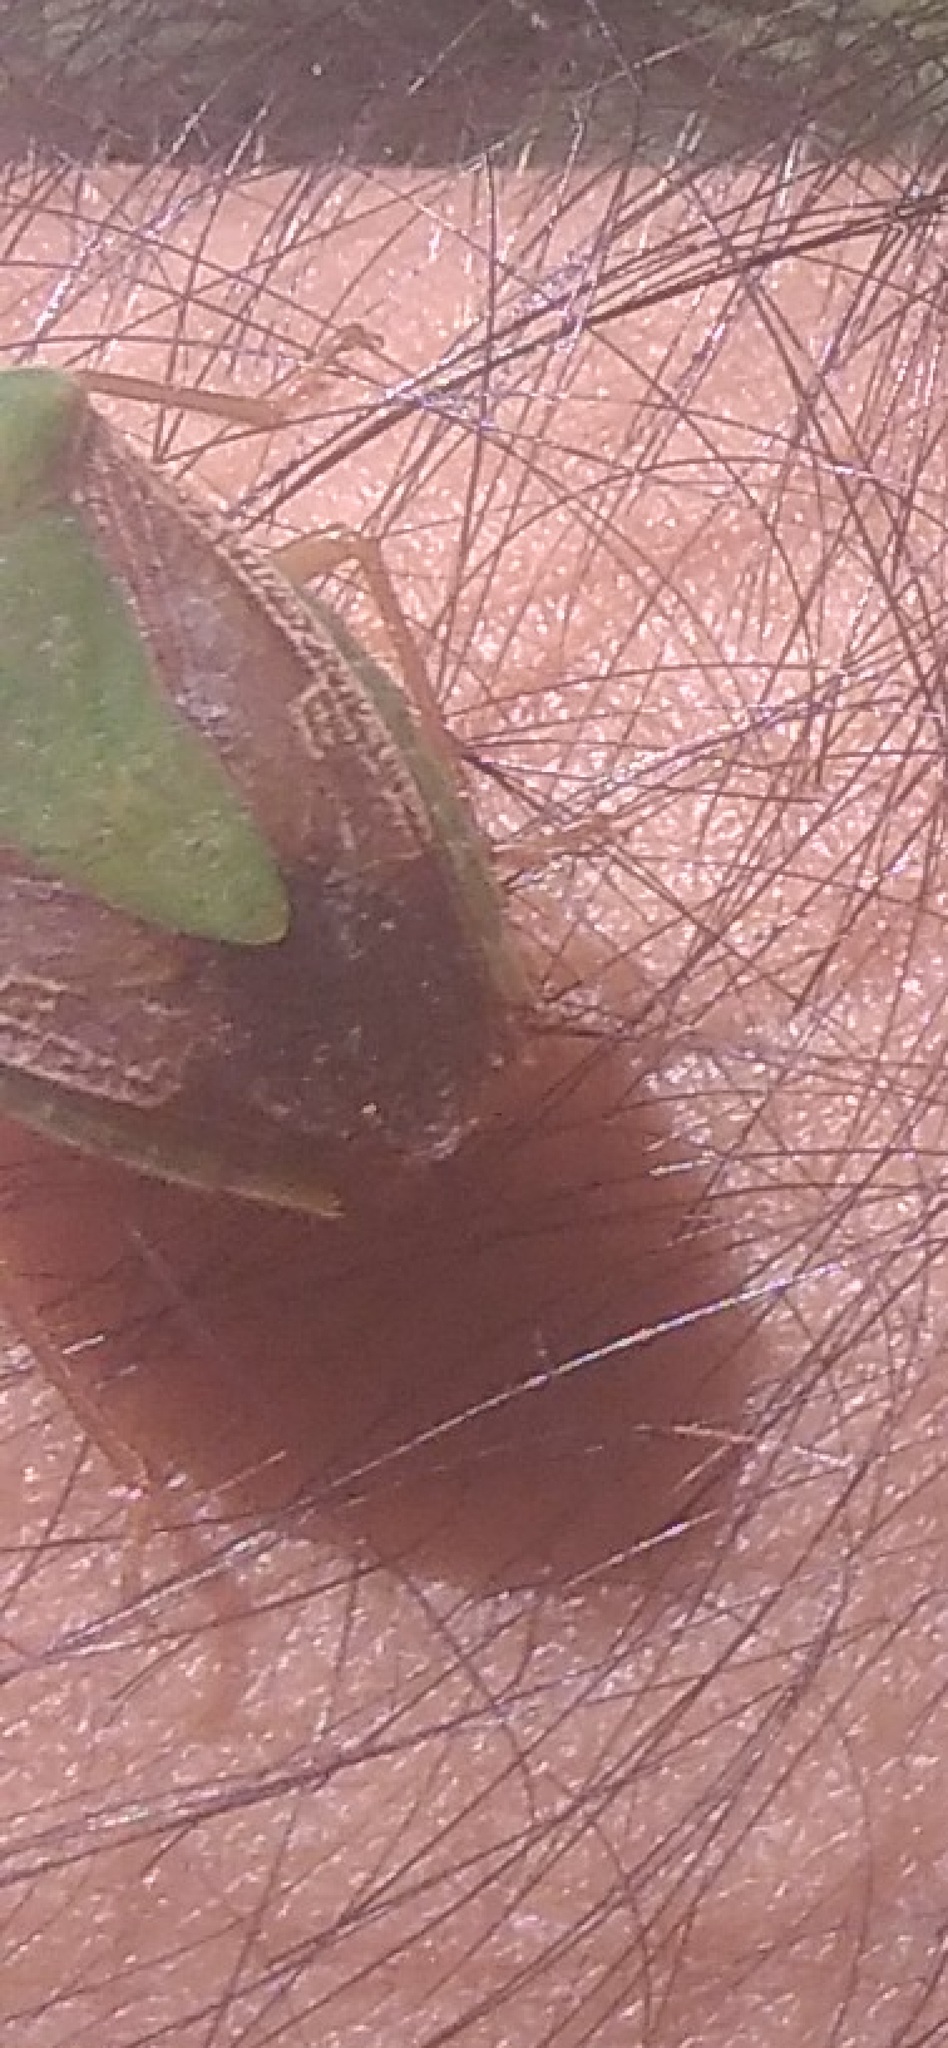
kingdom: Animalia
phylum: Arthropoda
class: Insecta
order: Hemiptera
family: Pentatomidae
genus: Edessa
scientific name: Edessa meditabunda
